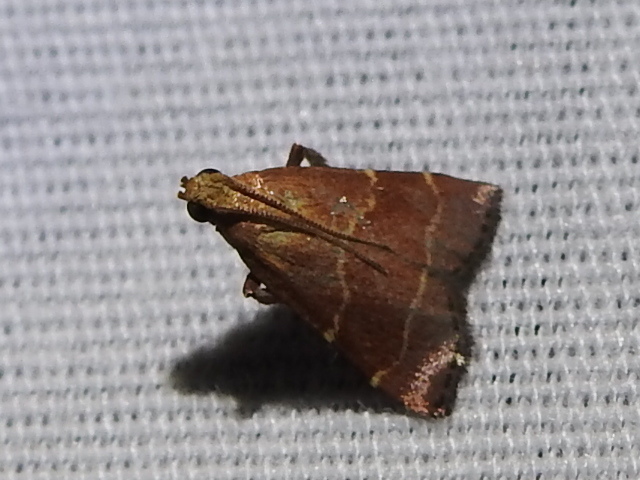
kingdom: Animalia
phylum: Arthropoda
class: Insecta
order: Lepidoptera
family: Pyralidae
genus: Arta
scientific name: Arta statalis
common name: Posturing arta moth
